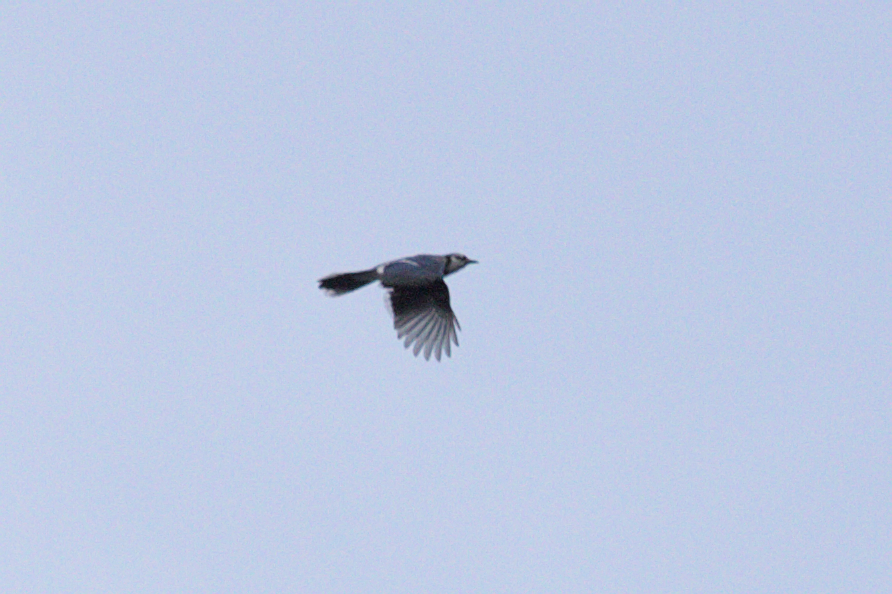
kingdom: Animalia
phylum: Chordata
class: Aves
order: Passeriformes
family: Corvidae
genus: Cyanocitta
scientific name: Cyanocitta cristata
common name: Blue jay
